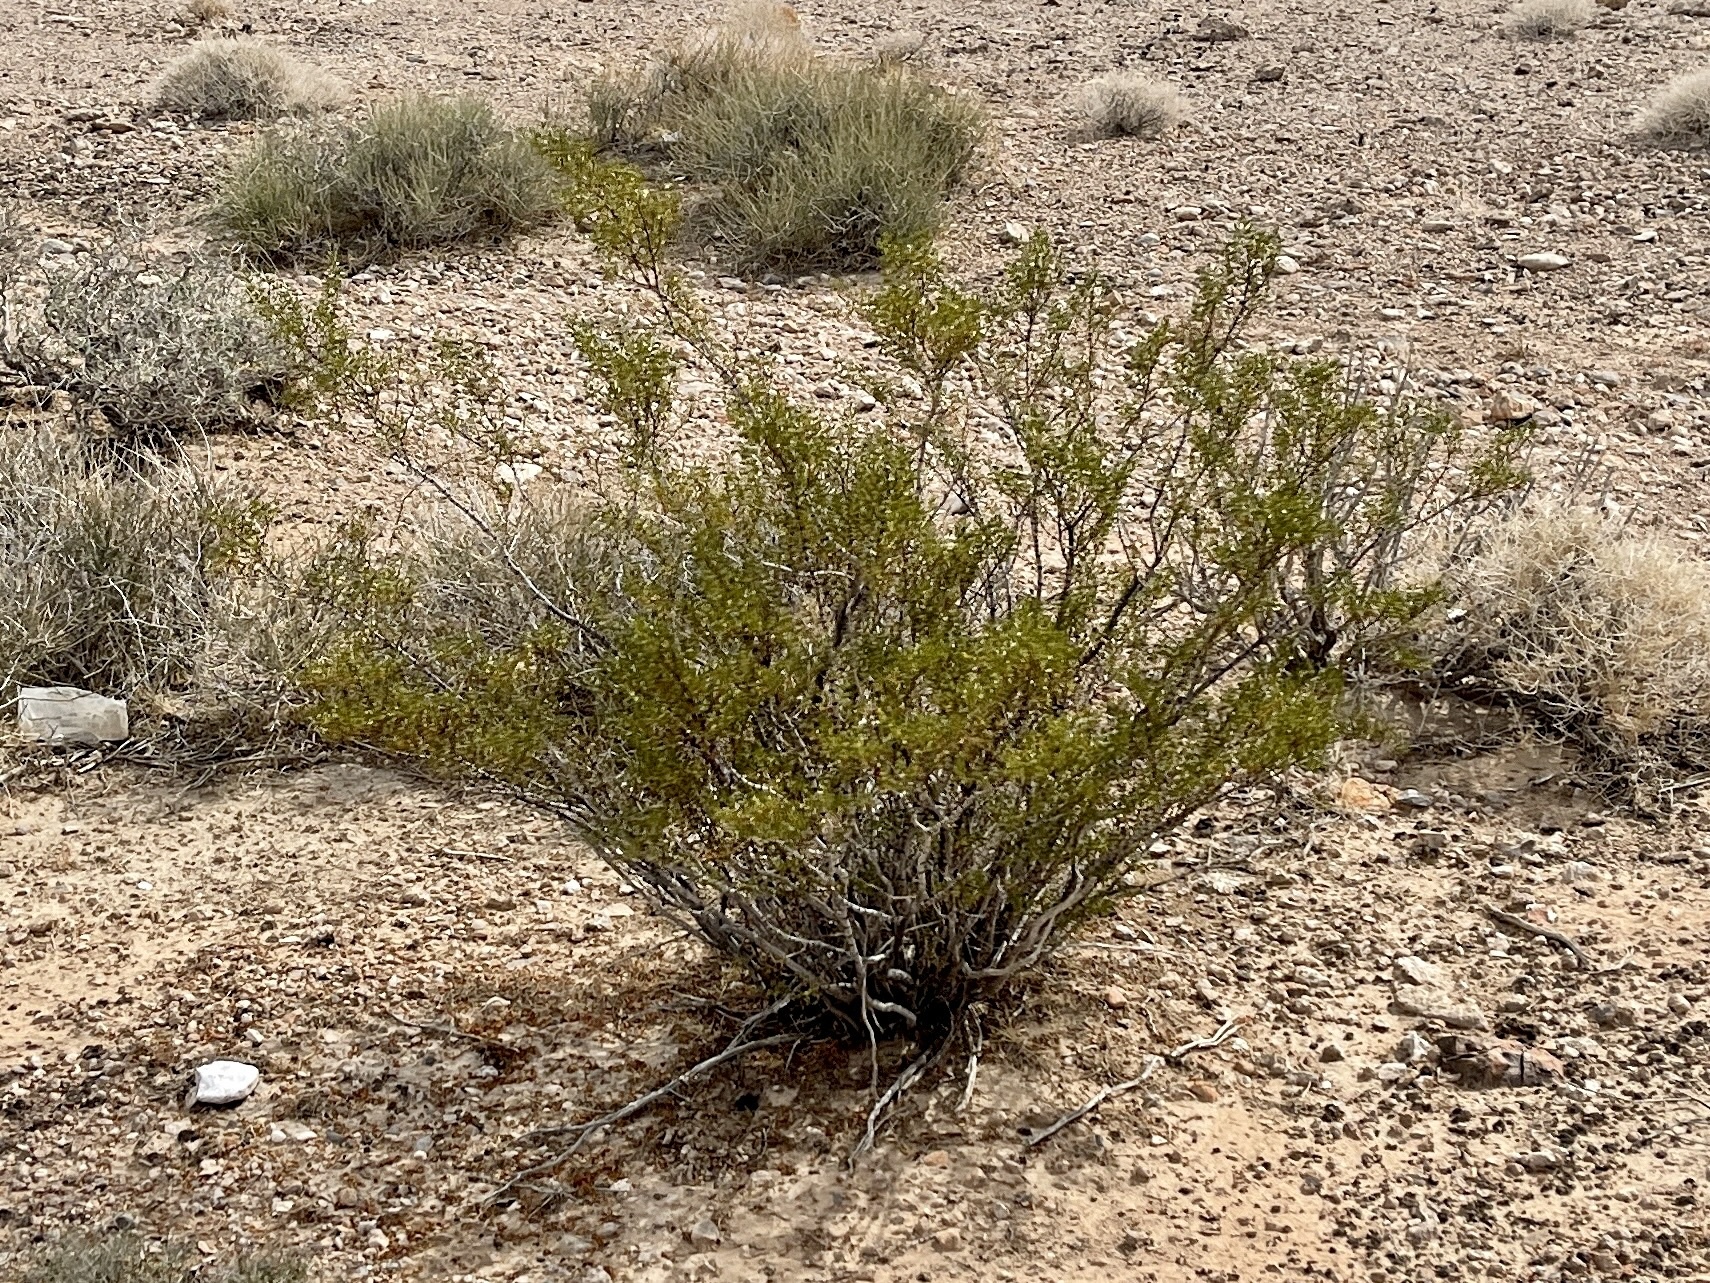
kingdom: Plantae
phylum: Tracheophyta
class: Magnoliopsida
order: Zygophyllales
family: Zygophyllaceae
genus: Larrea
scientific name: Larrea tridentata
